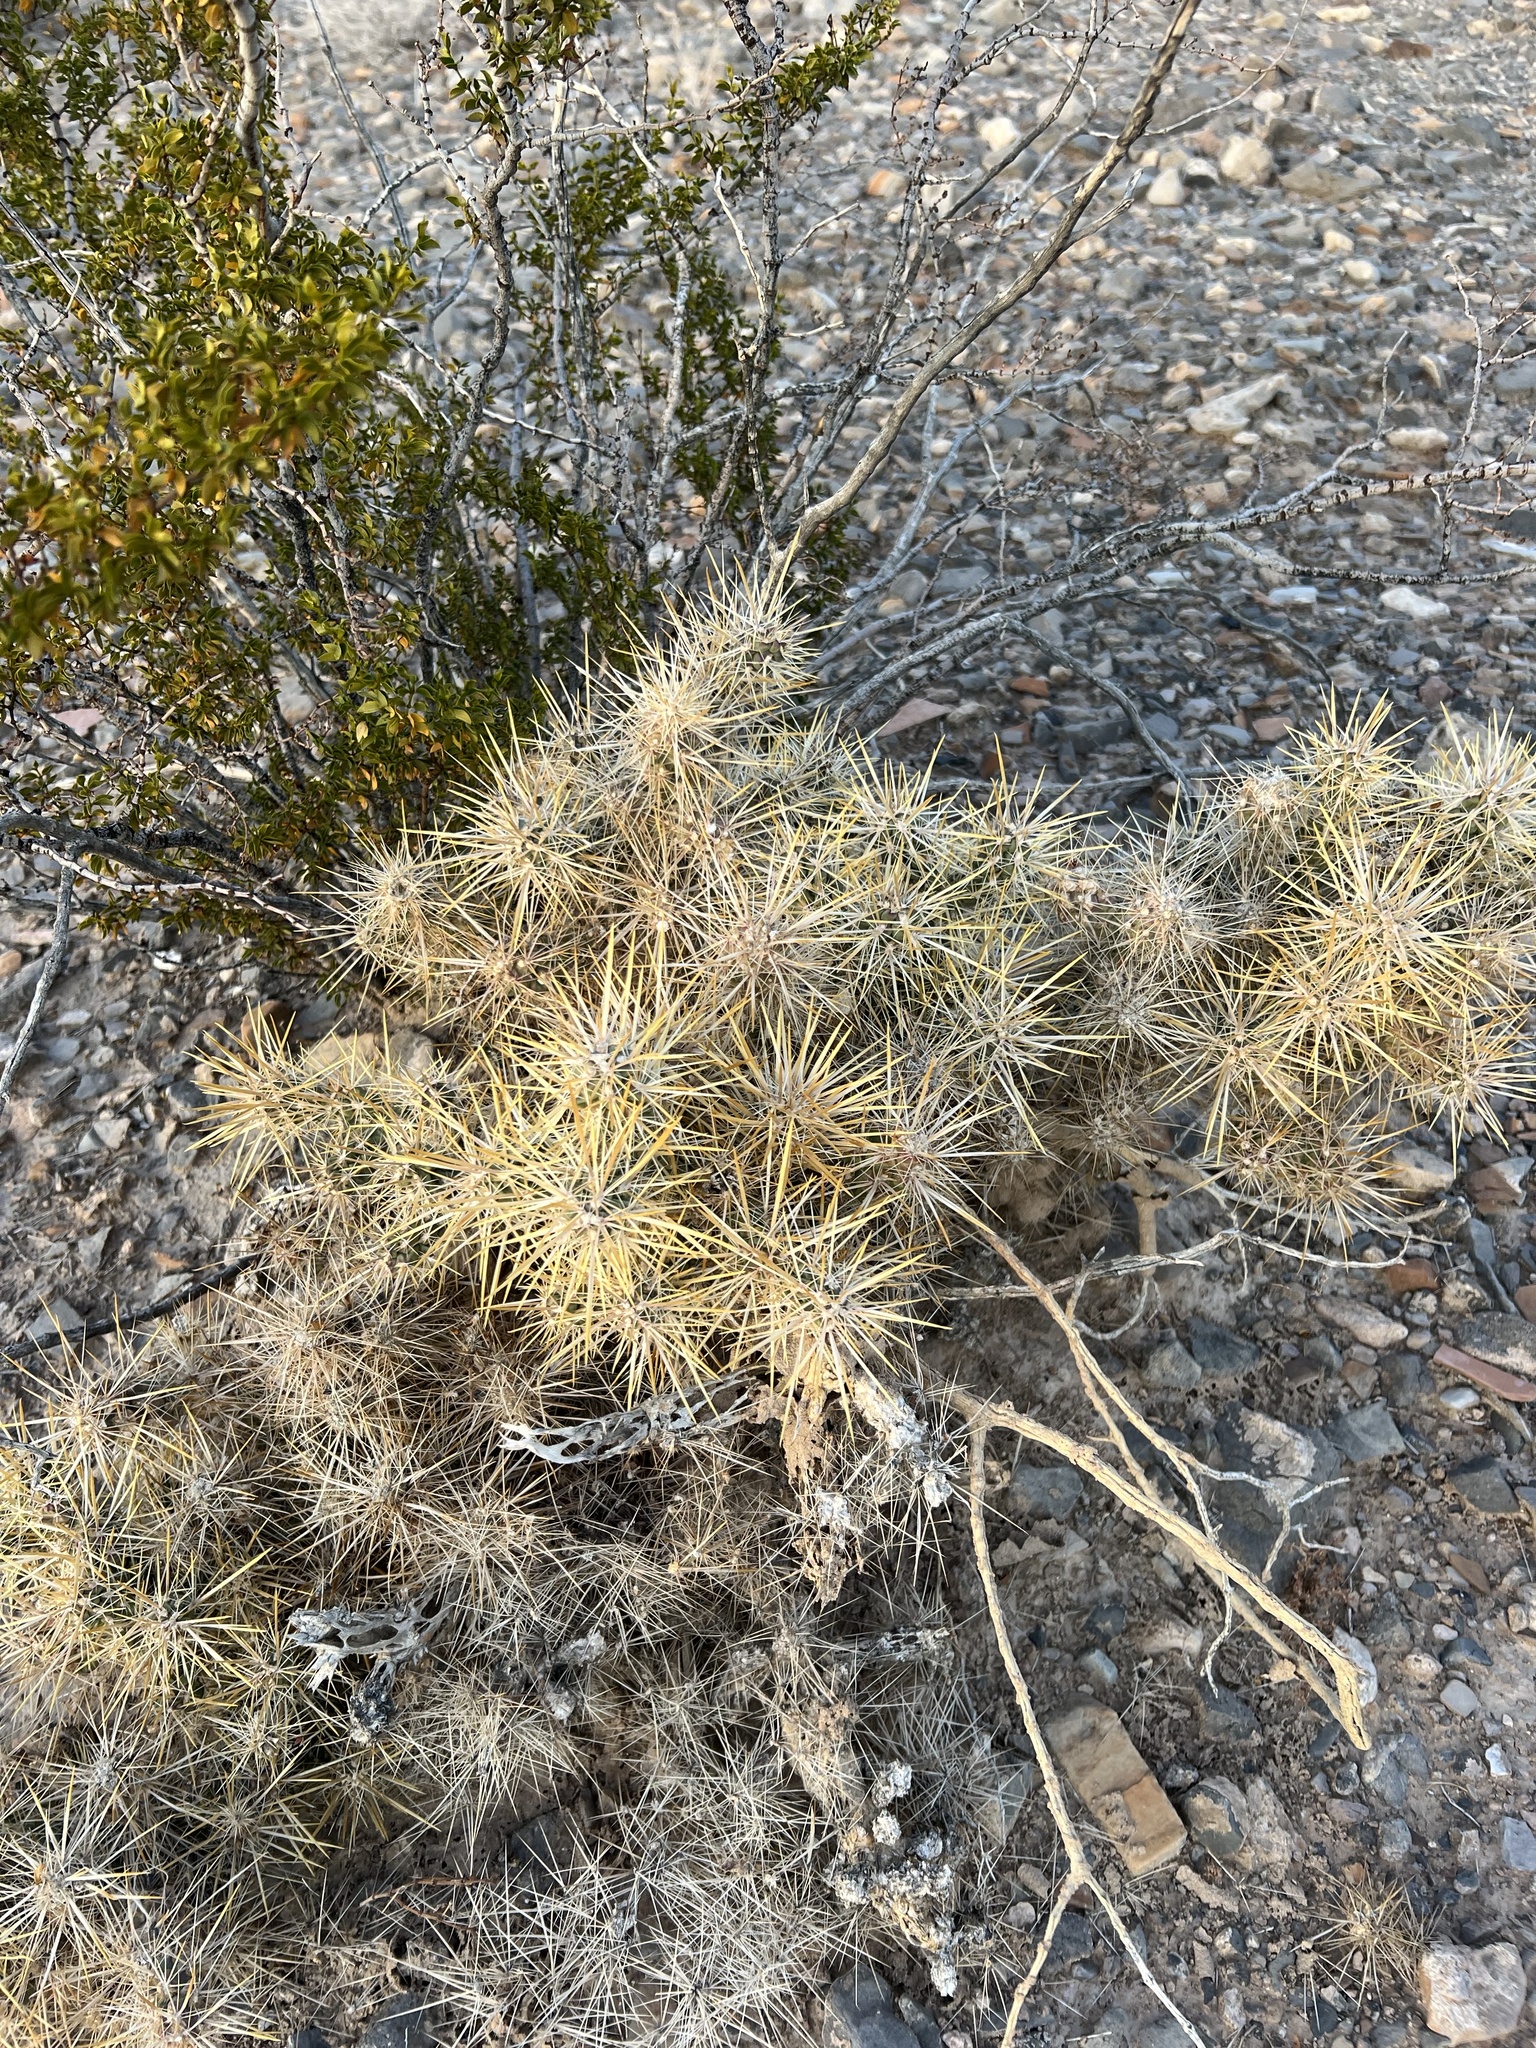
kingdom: Plantae
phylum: Tracheophyta
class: Magnoliopsida
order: Caryophyllales
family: Cactaceae
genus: Cylindropuntia
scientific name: Cylindropuntia echinocarpa
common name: Ground cholla
